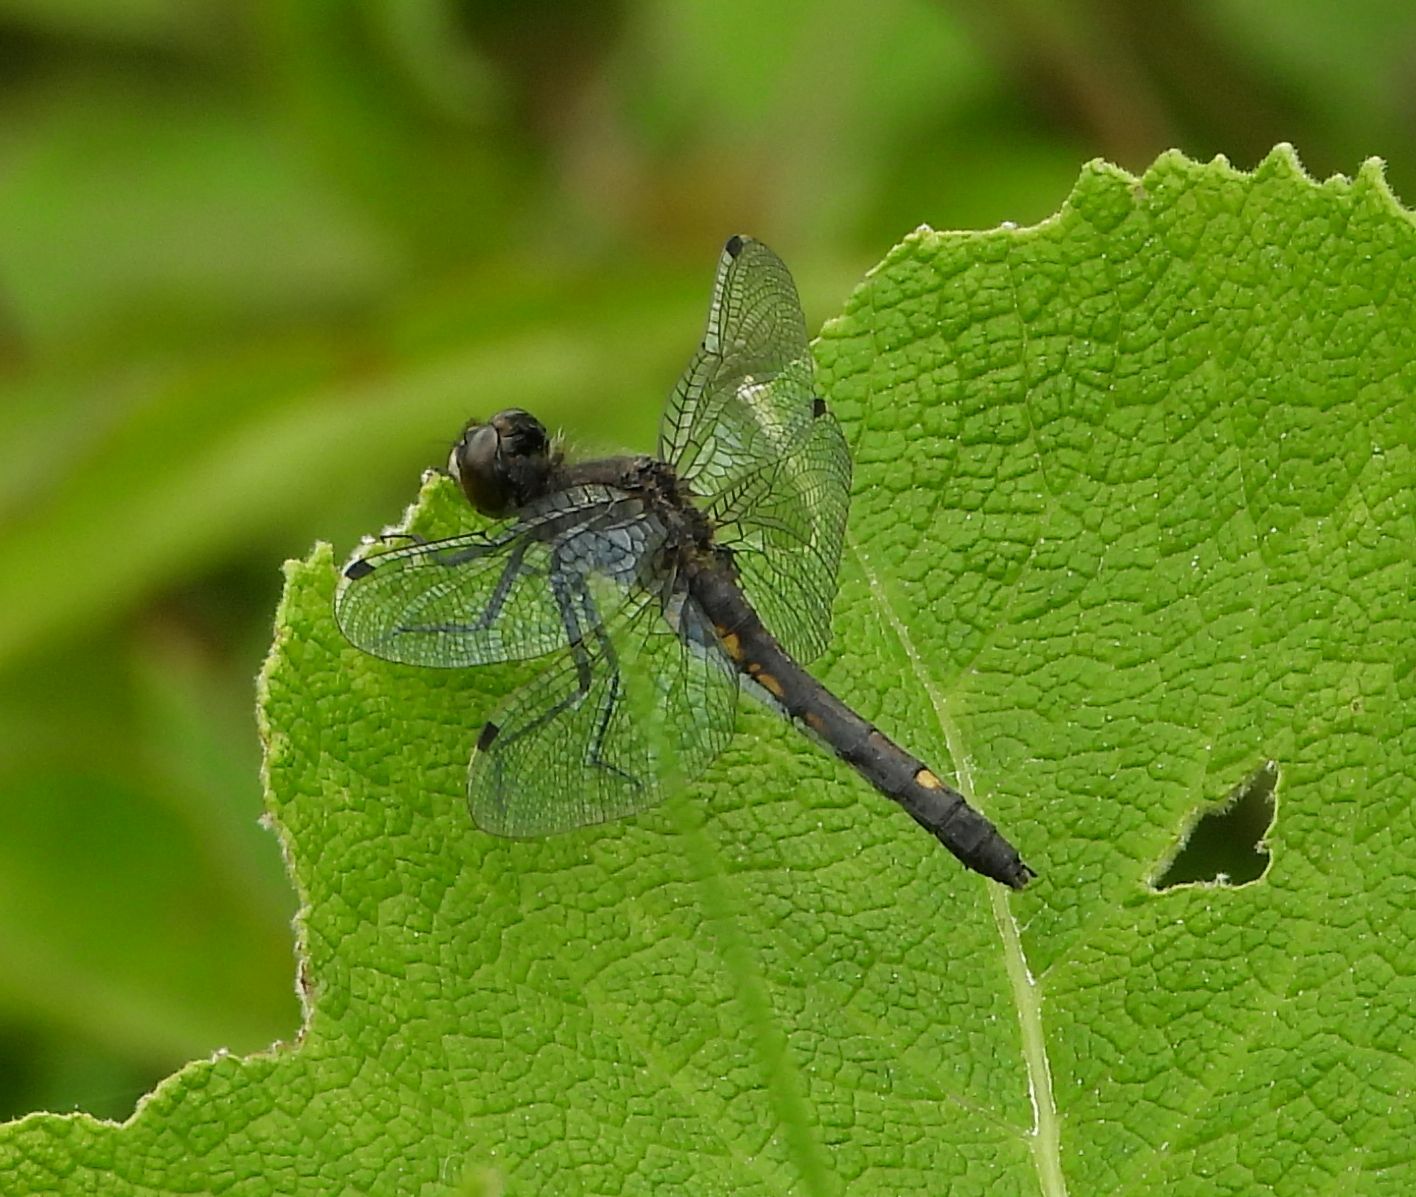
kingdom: Animalia
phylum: Arthropoda
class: Insecta
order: Odonata
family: Libellulidae
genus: Leucorrhinia
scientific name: Leucorrhinia intacta
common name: Dot-tailed whiteface
